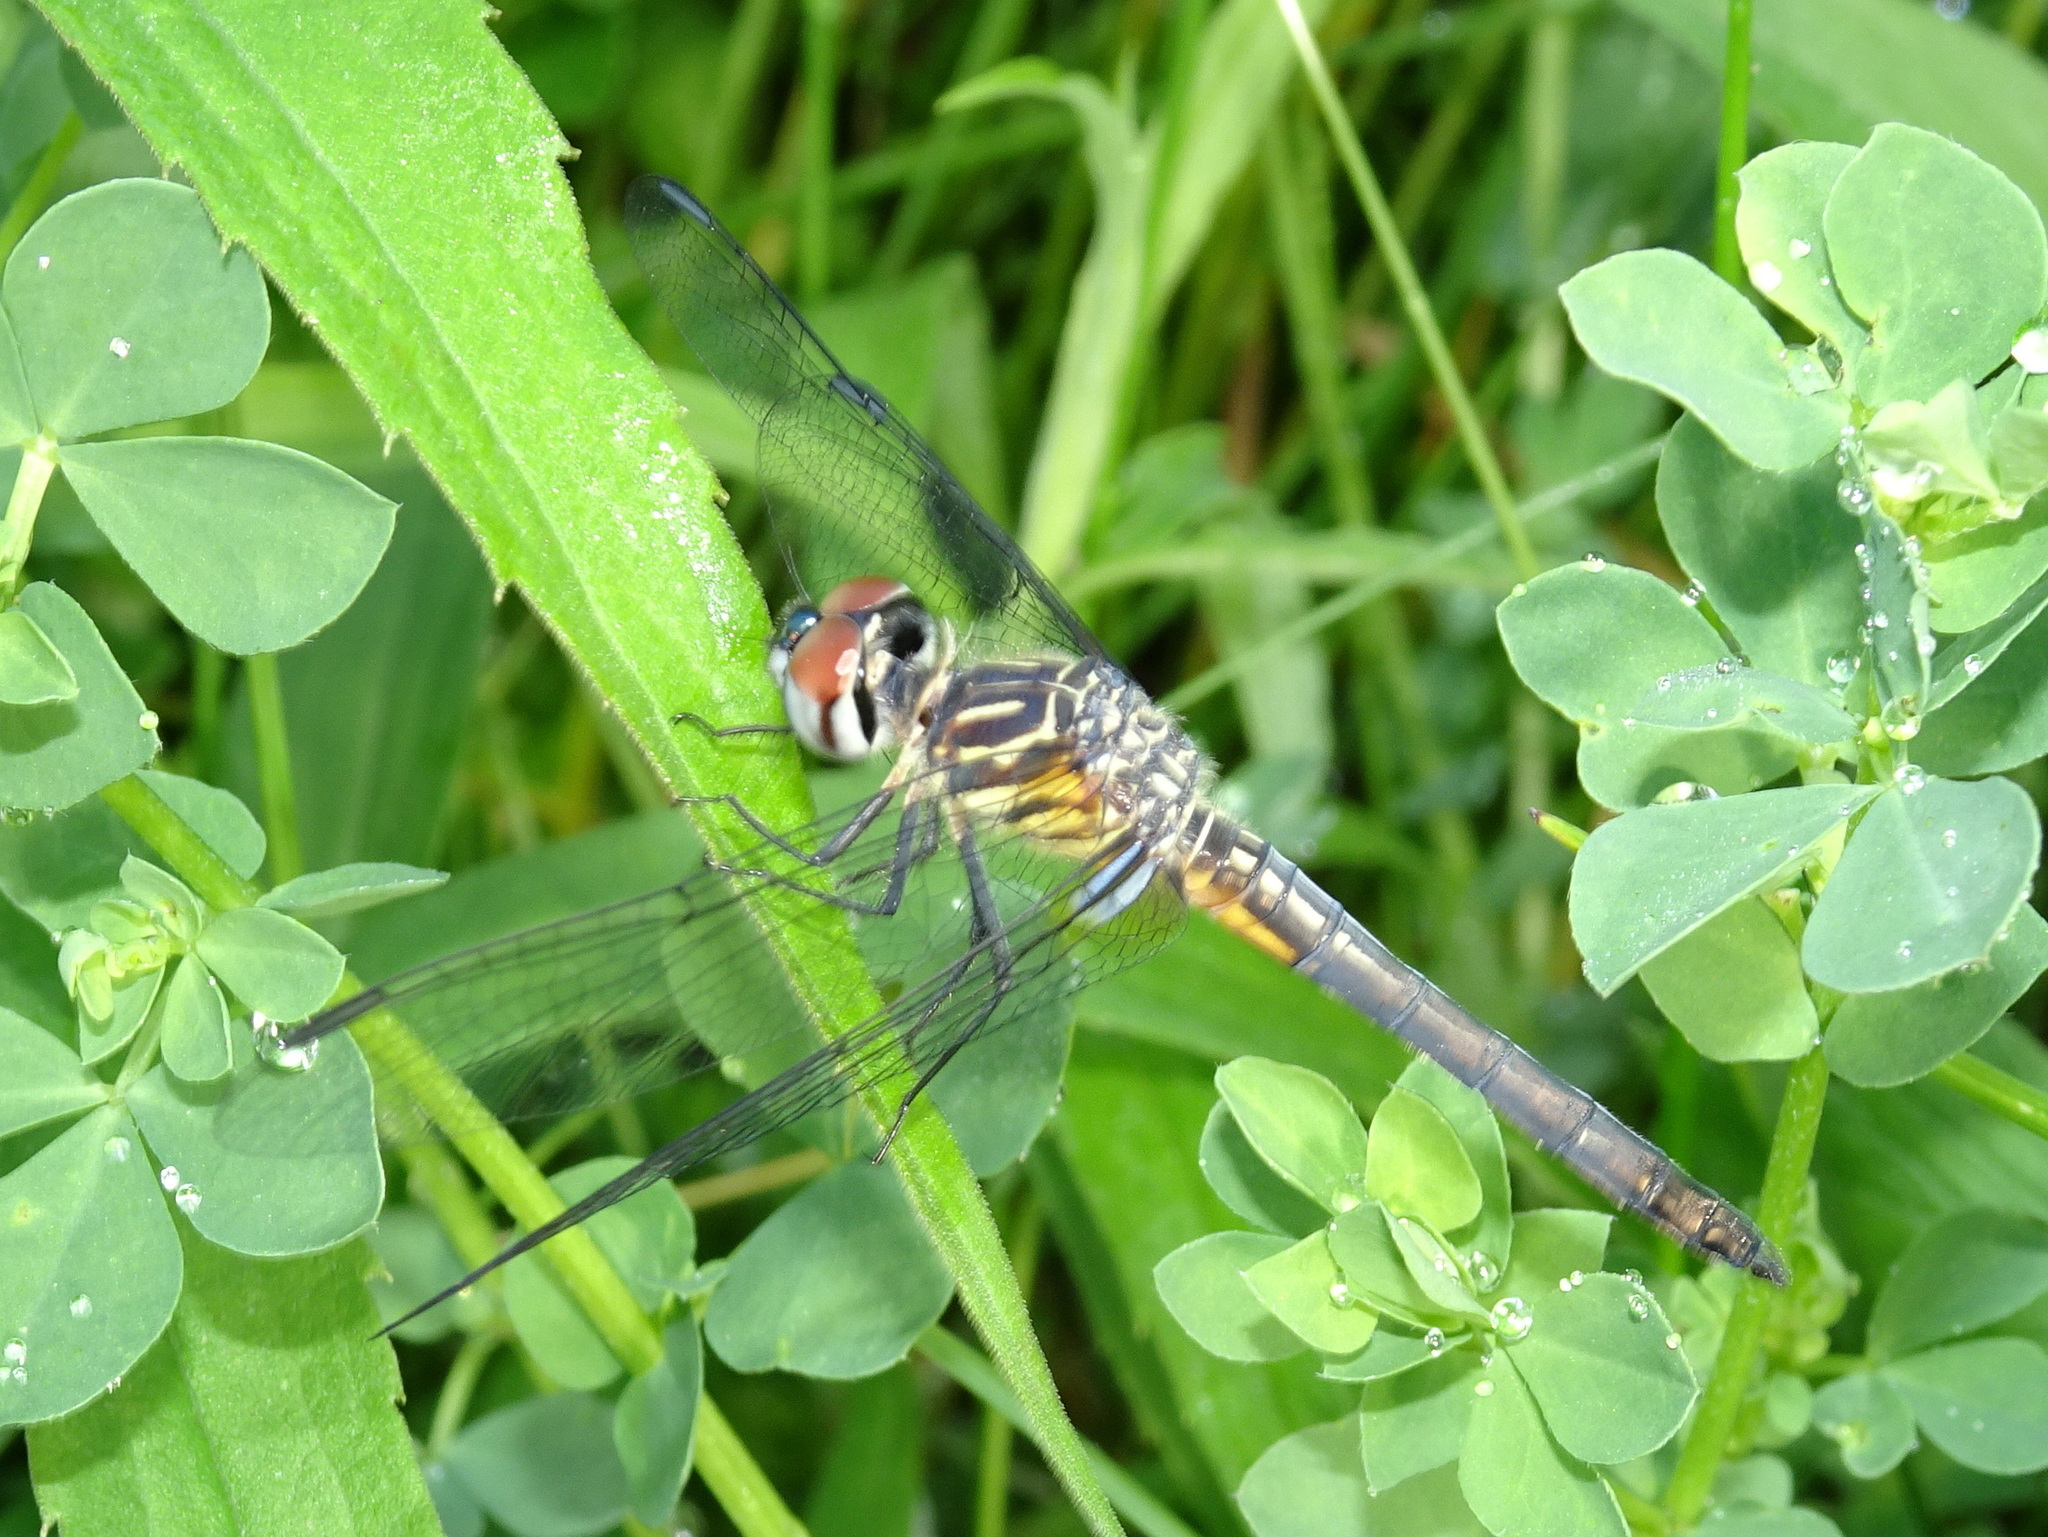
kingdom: Animalia
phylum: Arthropoda
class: Insecta
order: Odonata
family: Libellulidae
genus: Pachydiplax
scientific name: Pachydiplax longipennis
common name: Blue dasher
